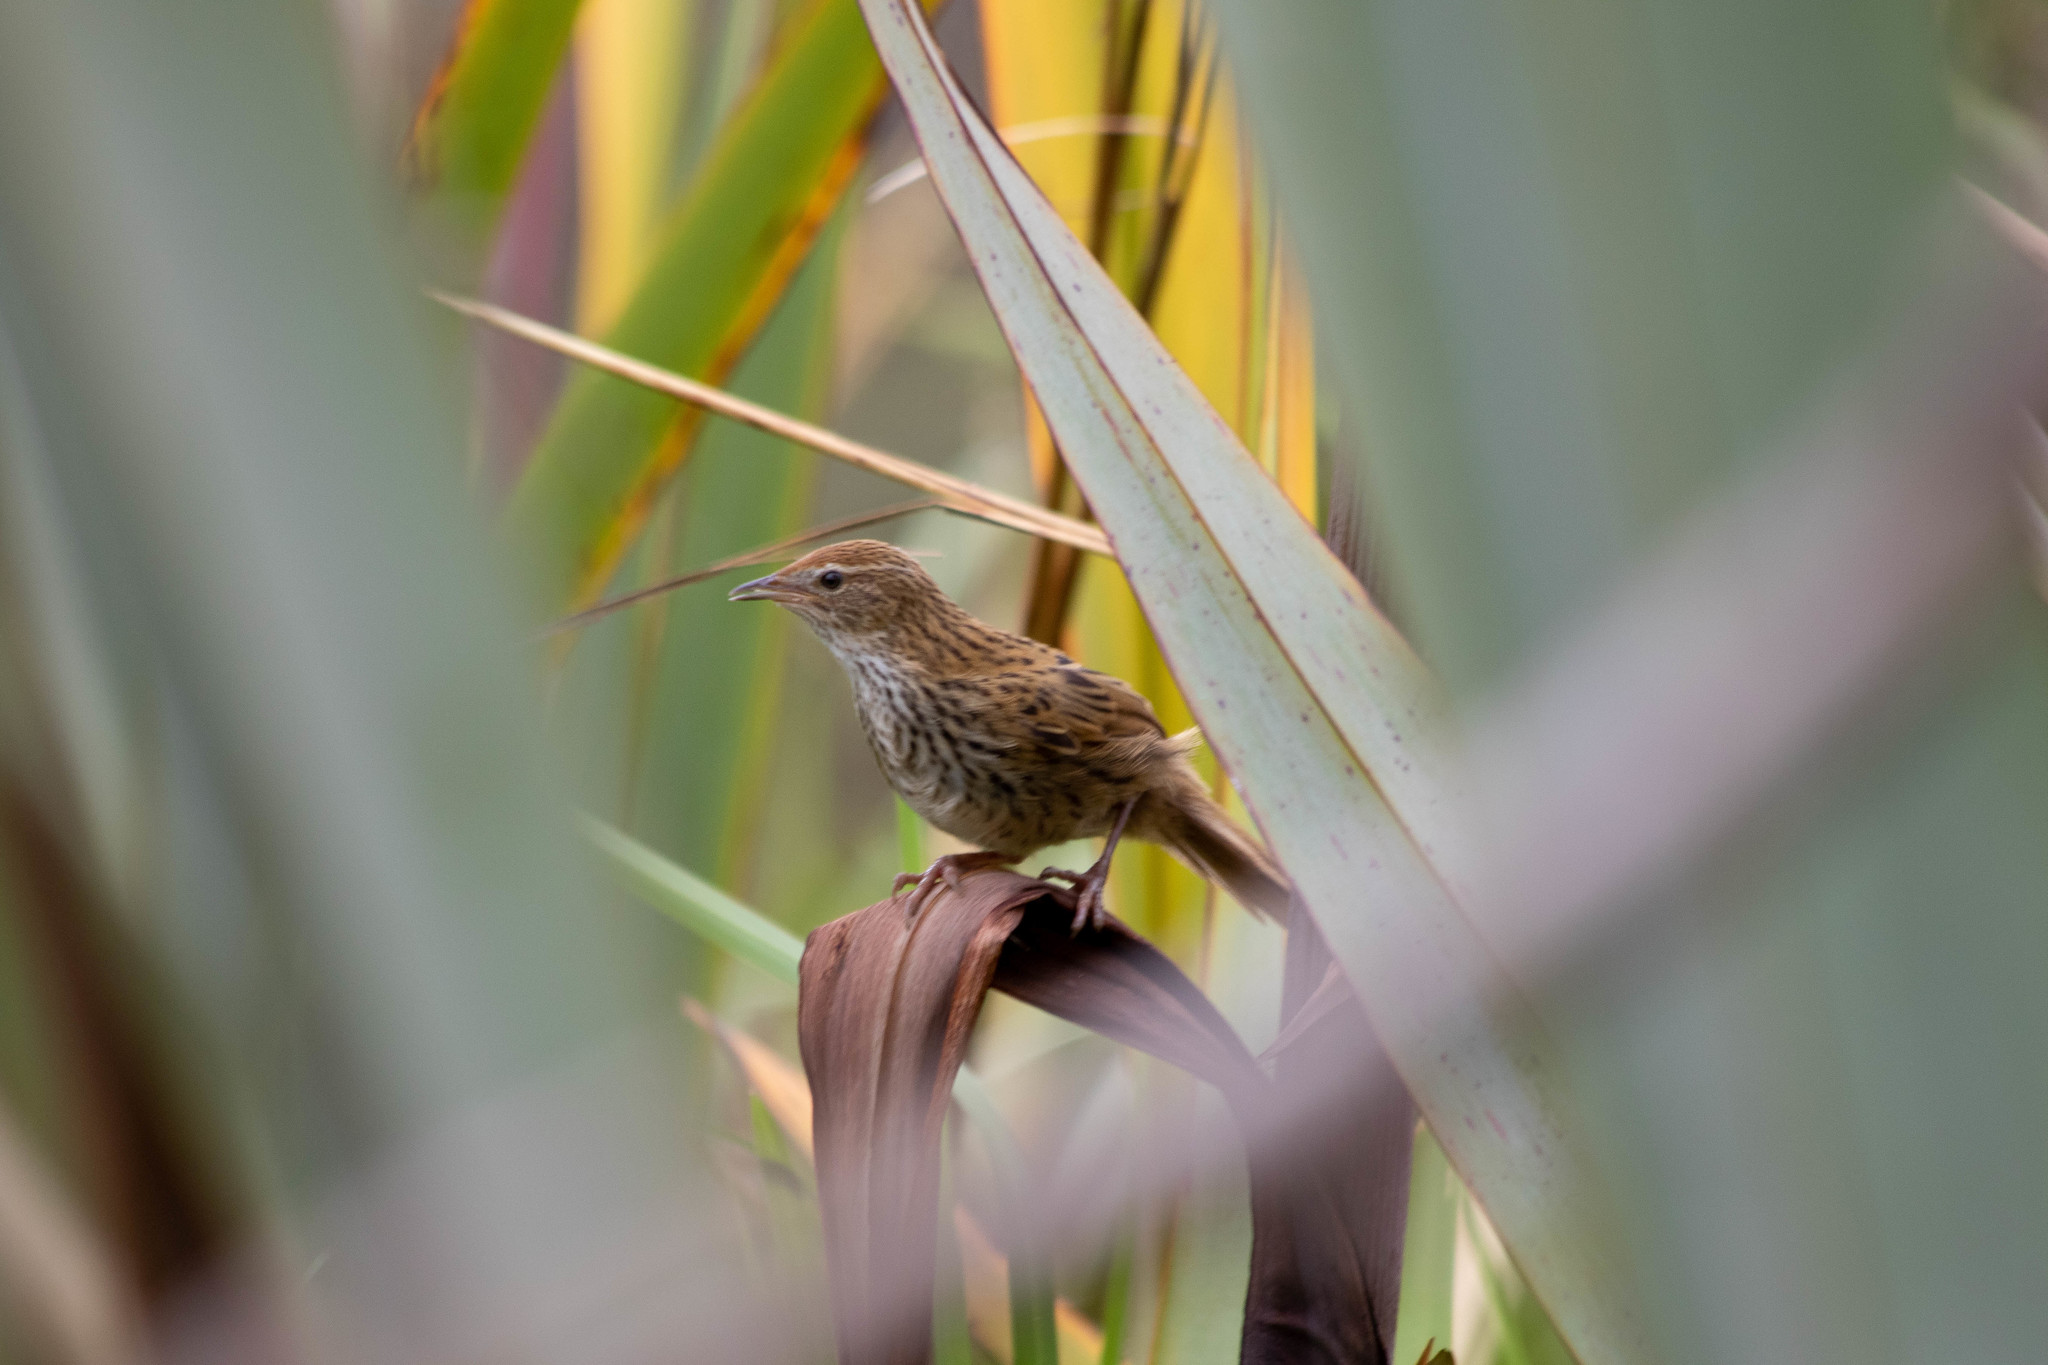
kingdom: Animalia
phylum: Chordata
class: Aves
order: Passeriformes
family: Locustellidae
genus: Poodytes
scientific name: Poodytes punctatus
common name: New zealand fernbird
